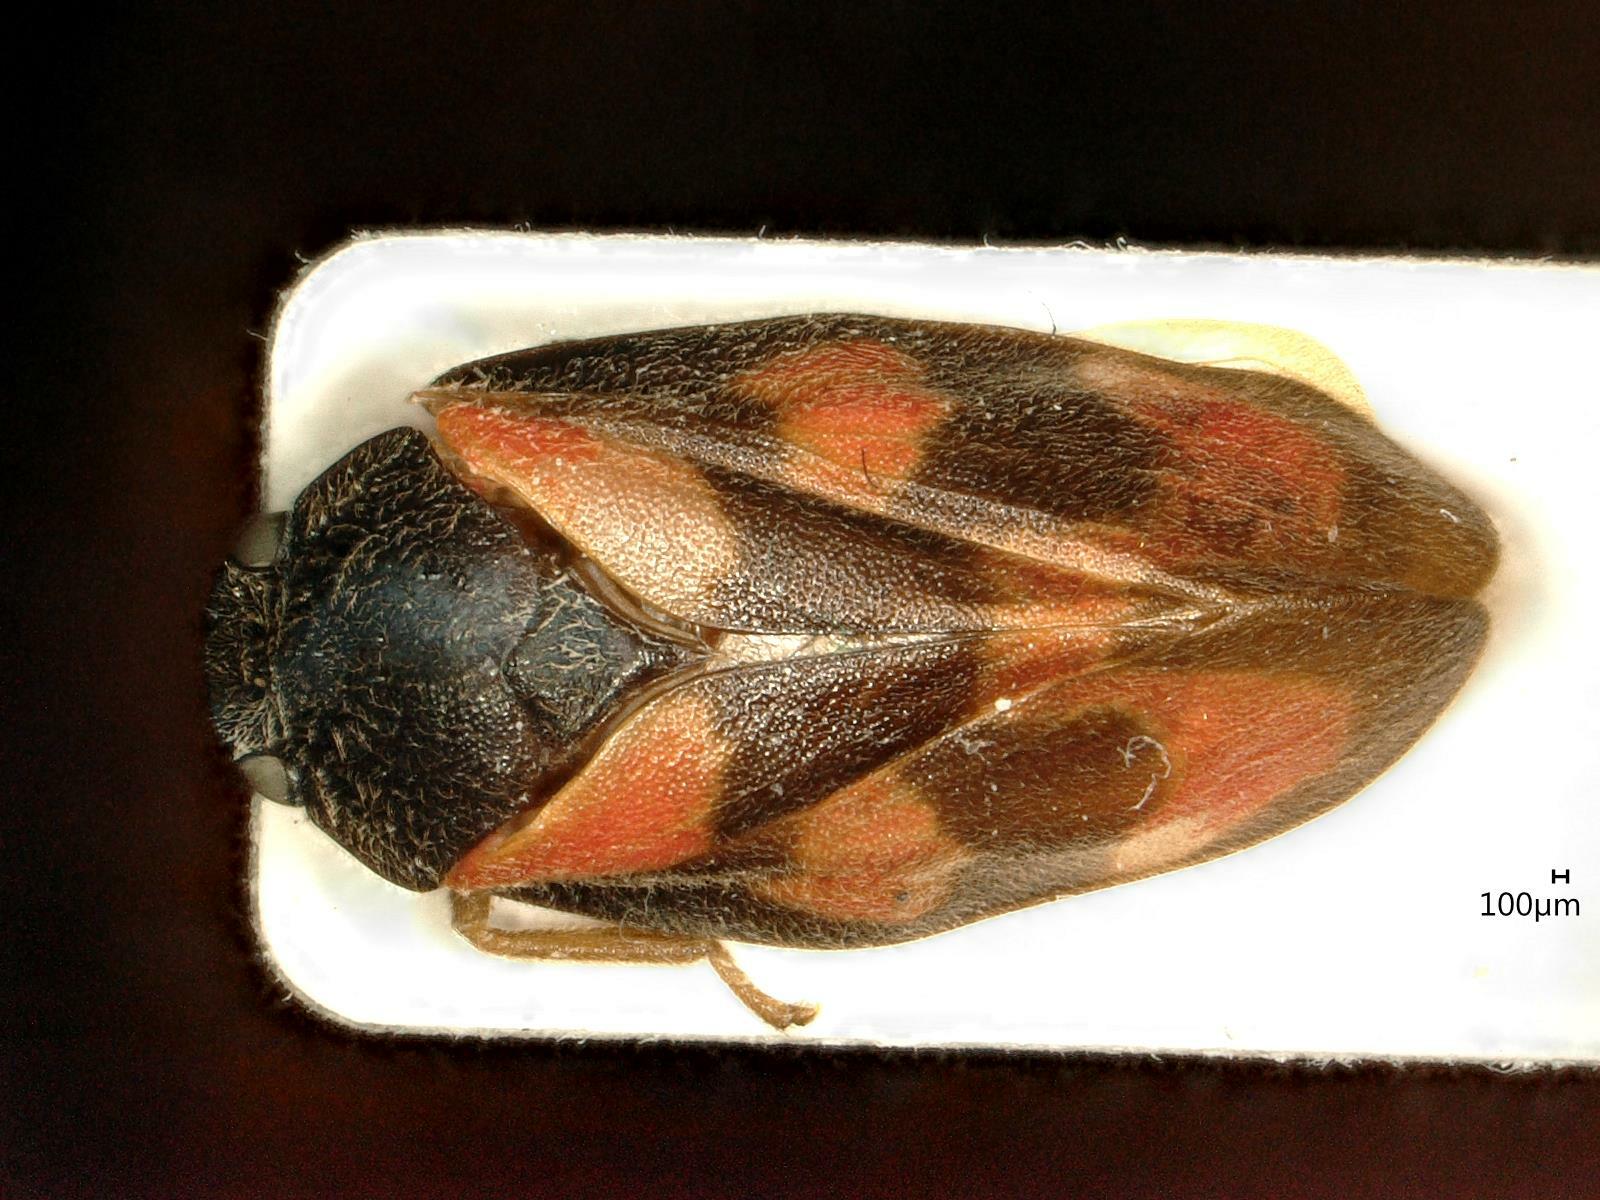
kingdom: Animalia
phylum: Arthropoda
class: Insecta
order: Hemiptera
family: Cercopidae
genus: Cercopis
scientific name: Cercopis vulnerata
